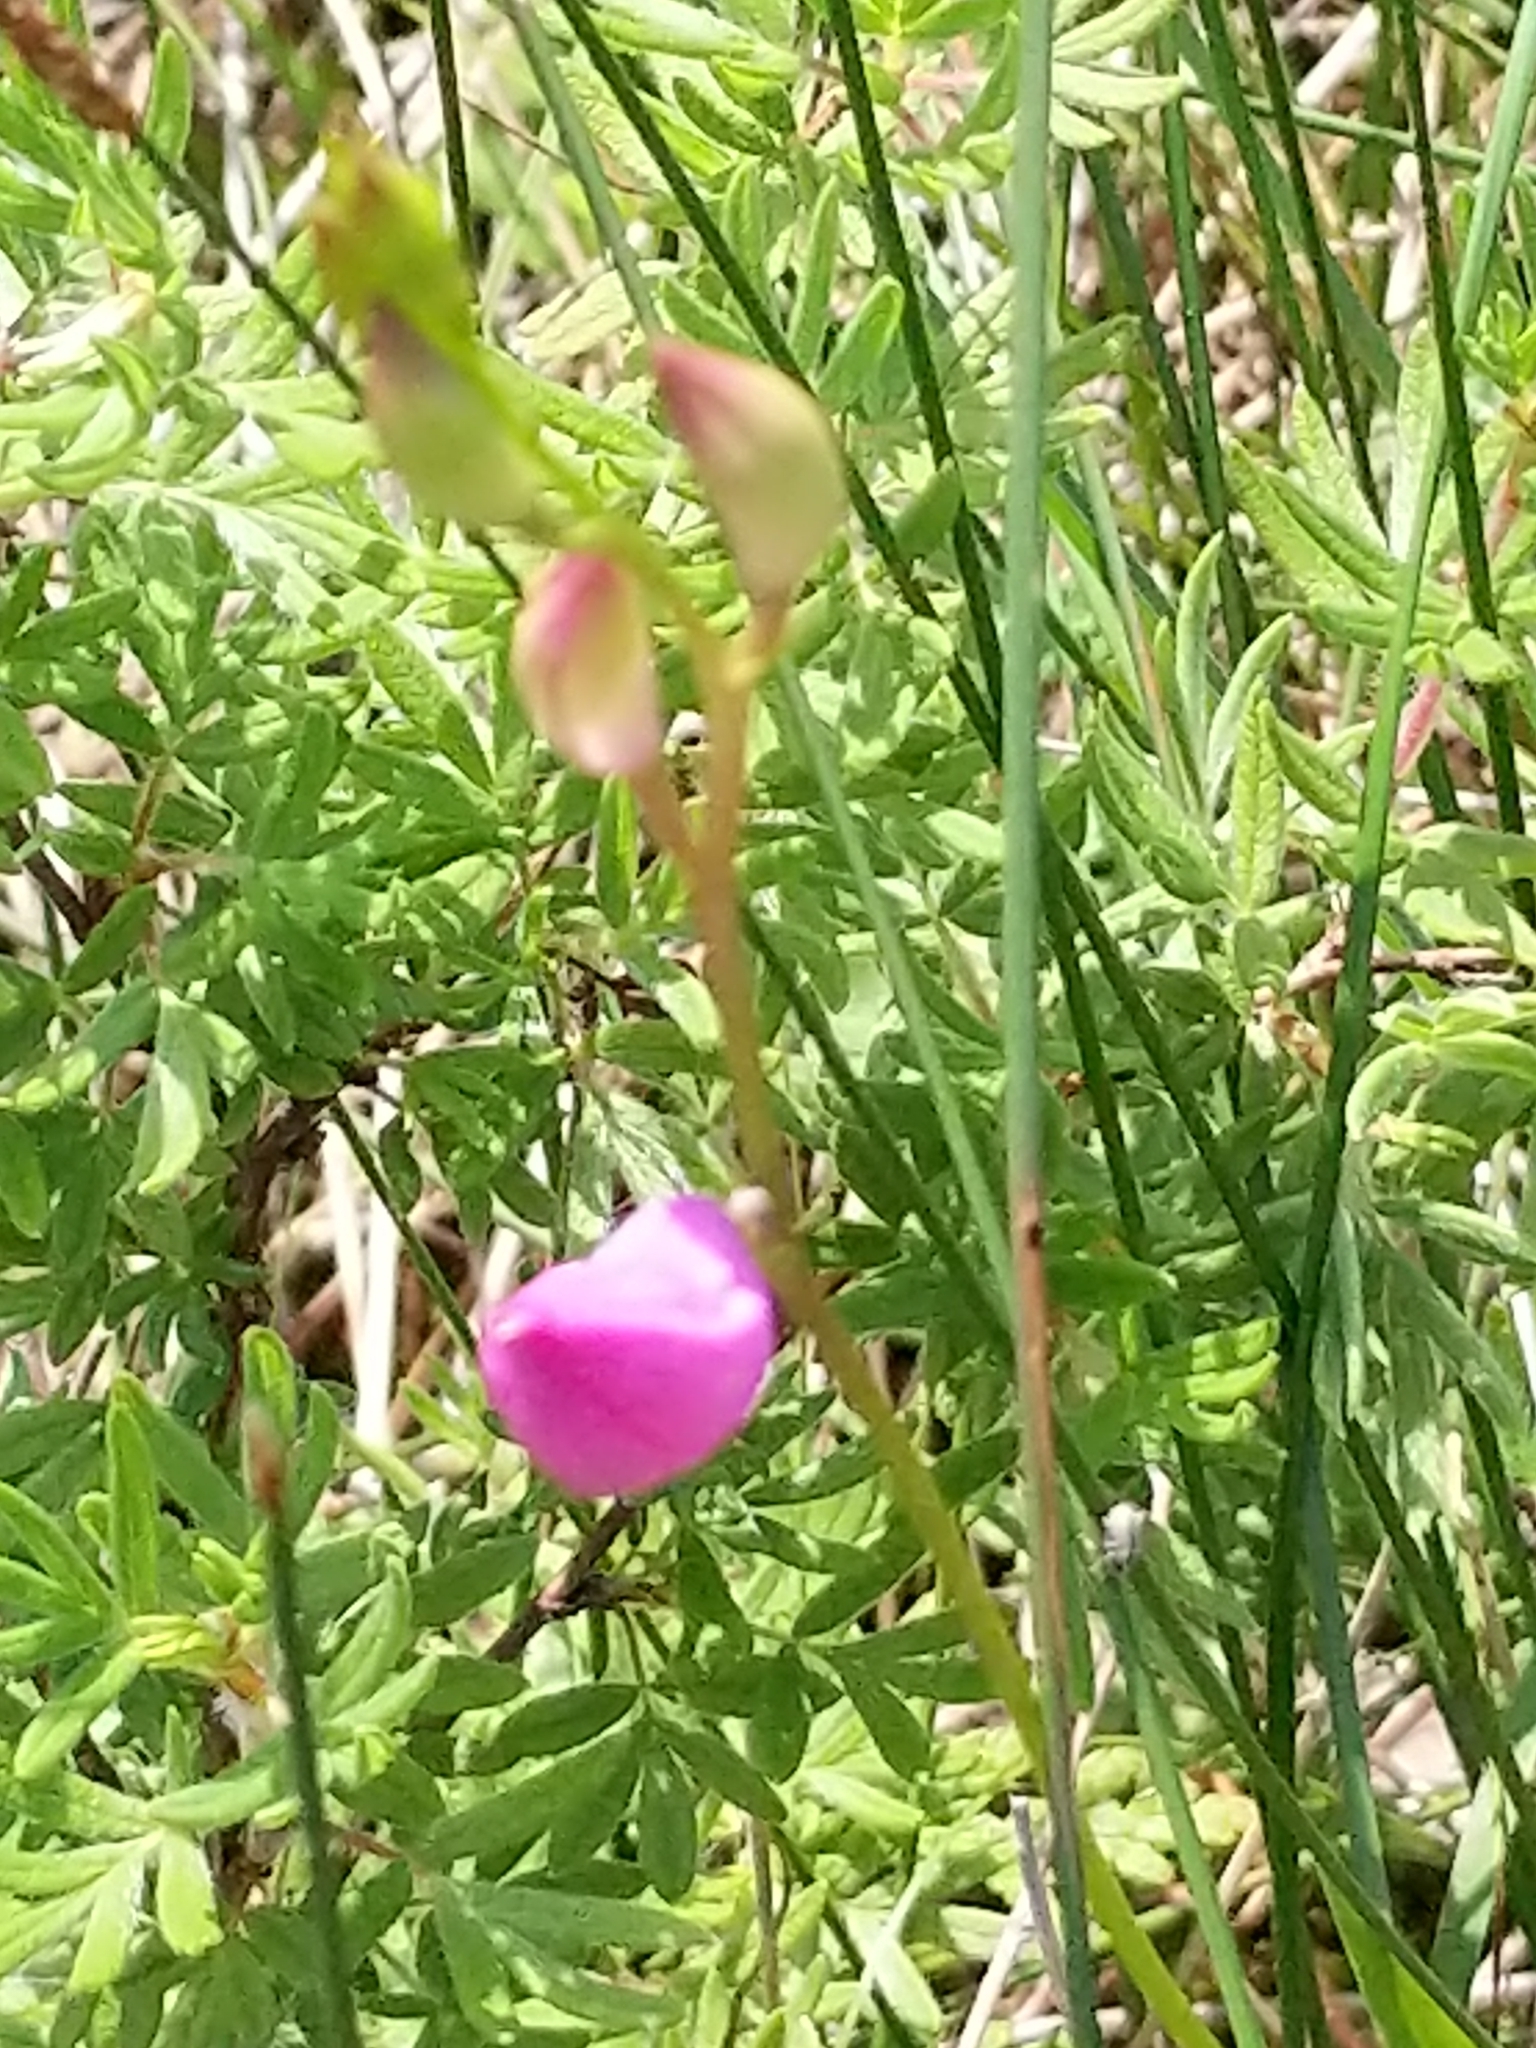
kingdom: Plantae
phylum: Tracheophyta
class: Liliopsida
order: Asparagales
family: Orchidaceae
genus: Calopogon
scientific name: Calopogon tuberosus
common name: Grass-pink
